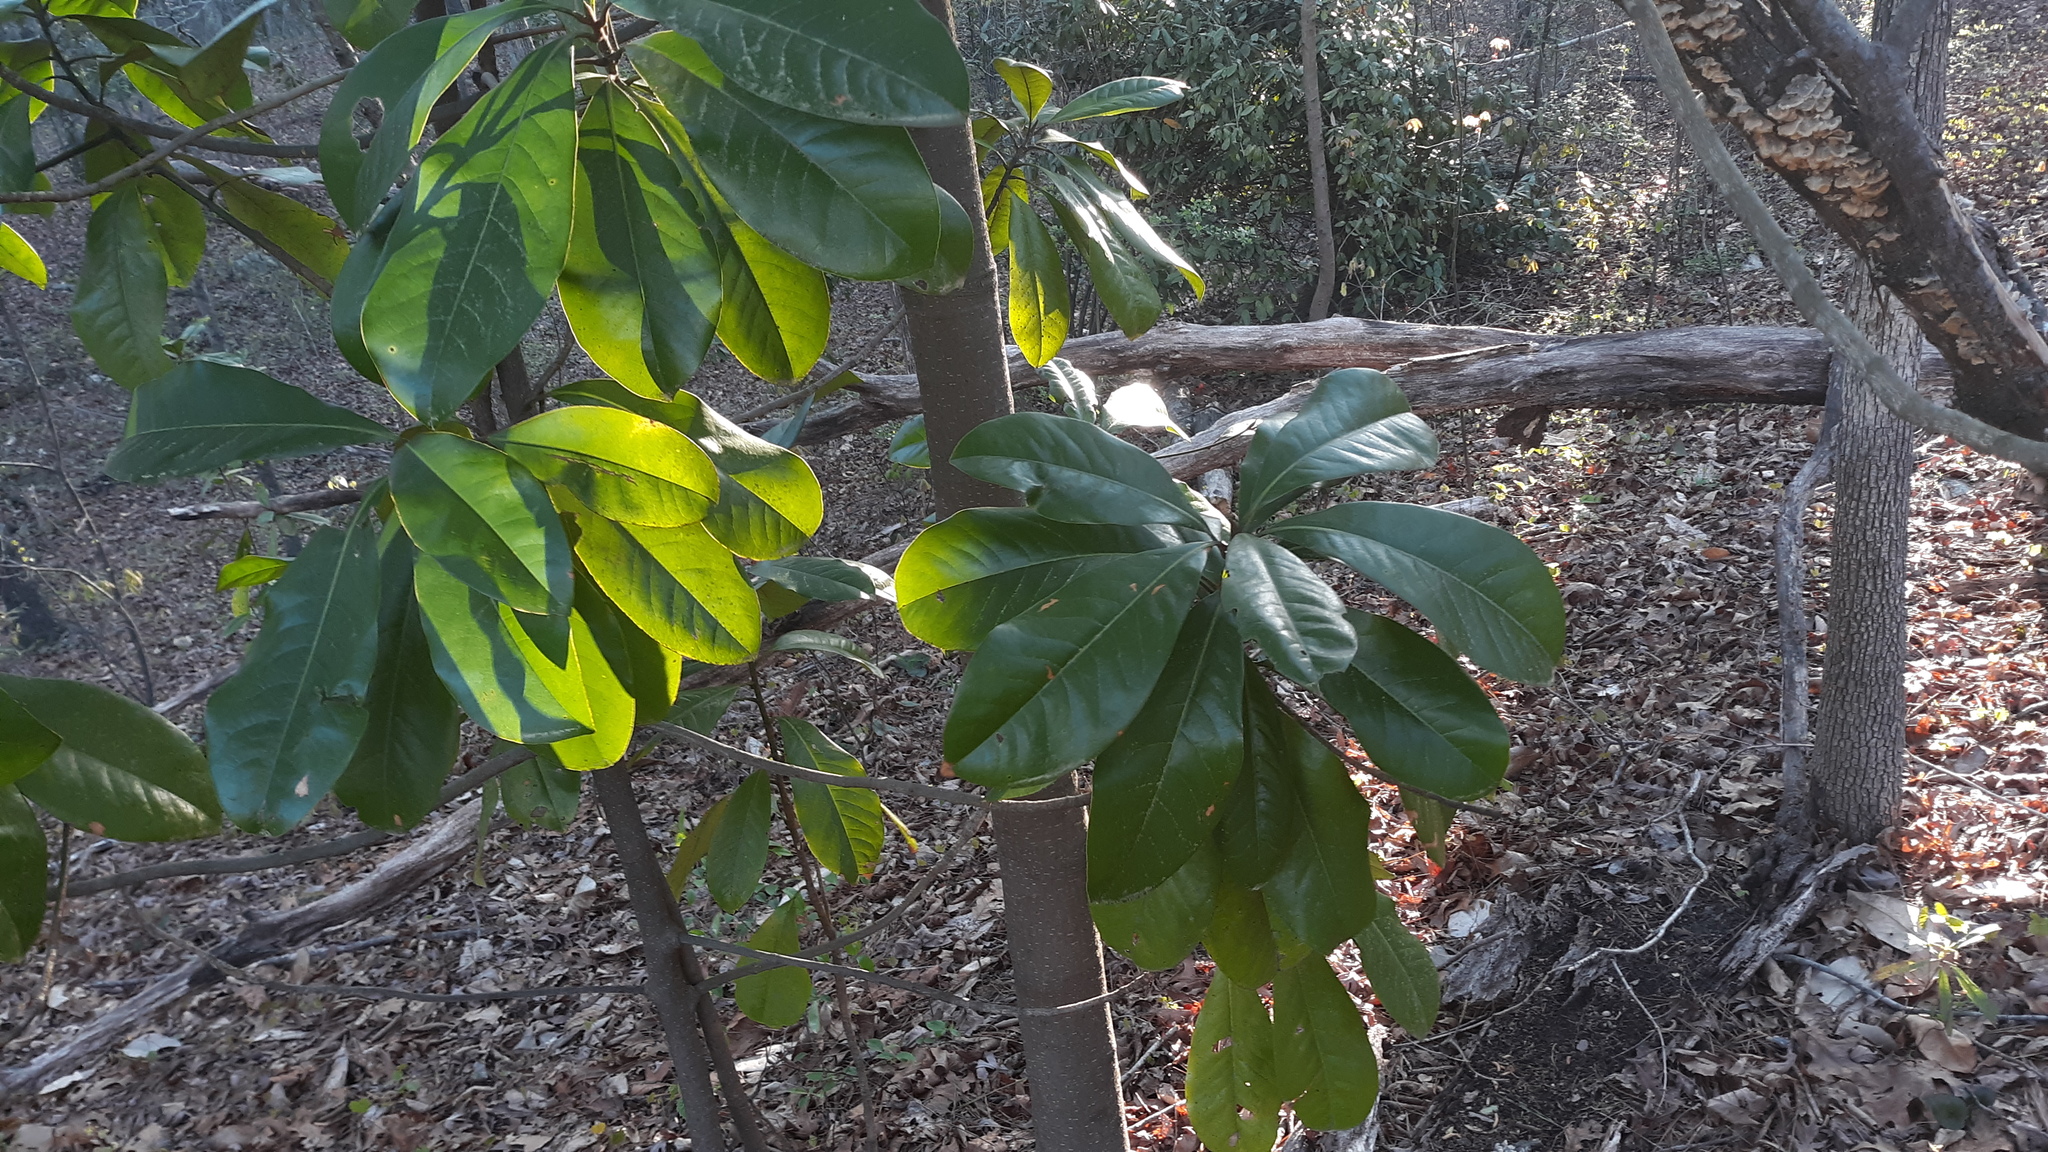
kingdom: Plantae
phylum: Tracheophyta
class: Magnoliopsida
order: Magnoliales
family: Magnoliaceae
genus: Magnolia
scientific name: Magnolia grandiflora
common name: Southern magnolia
